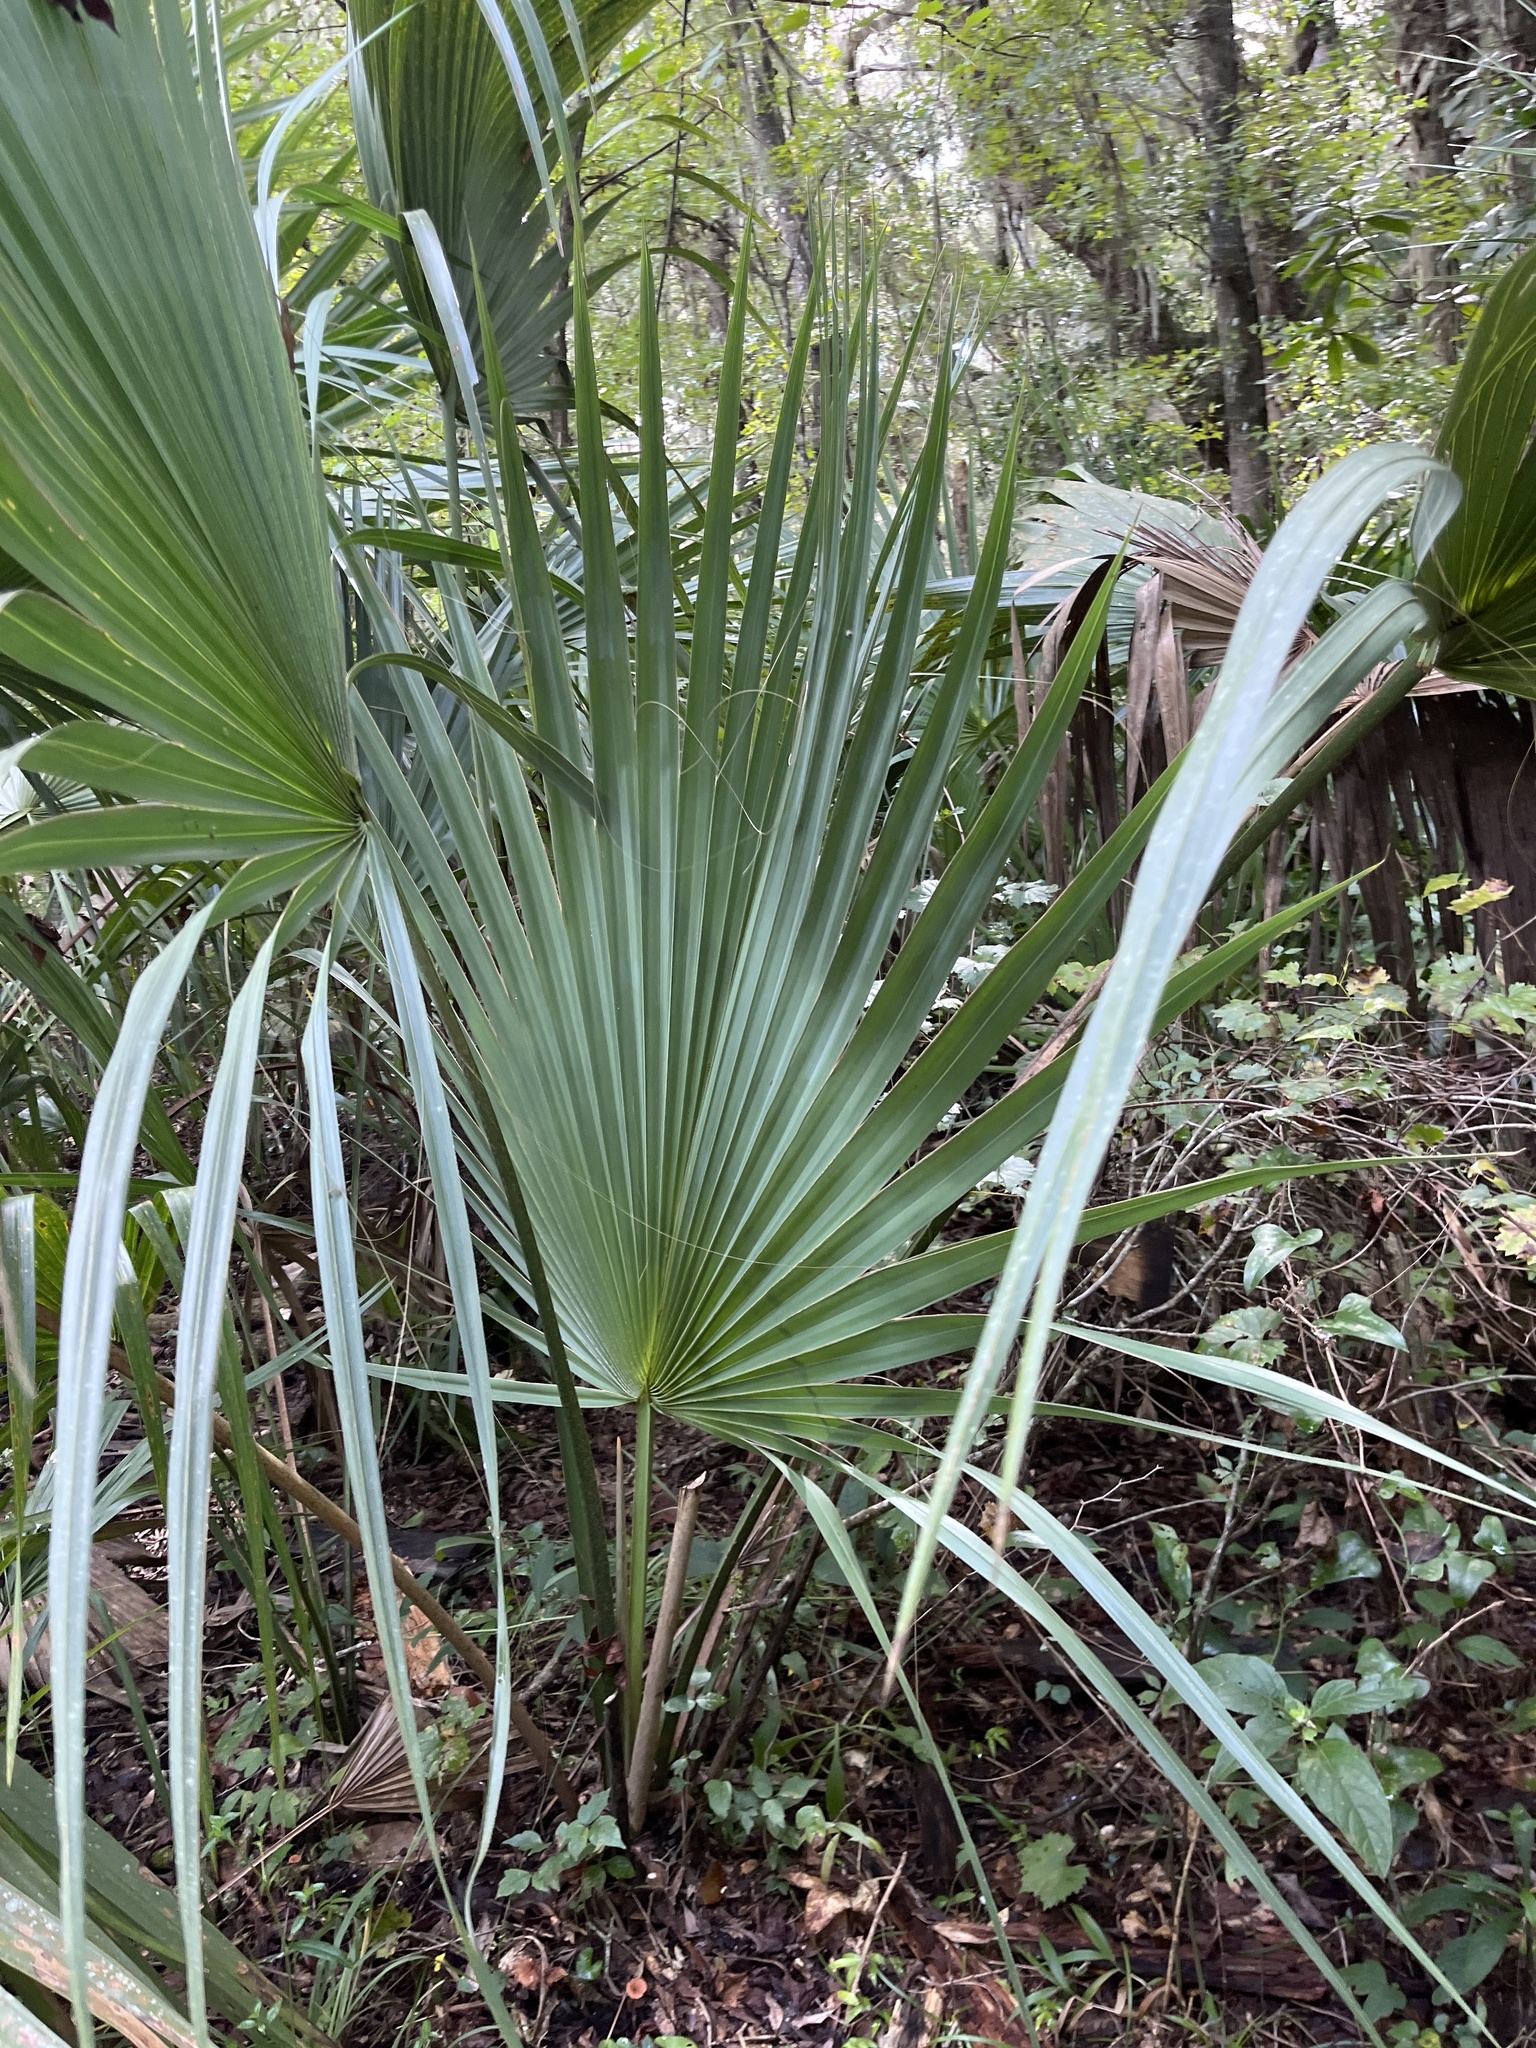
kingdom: Plantae
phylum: Tracheophyta
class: Liliopsida
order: Arecales
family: Arecaceae
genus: Sabal
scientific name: Sabal palmetto
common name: Blue palmetto
